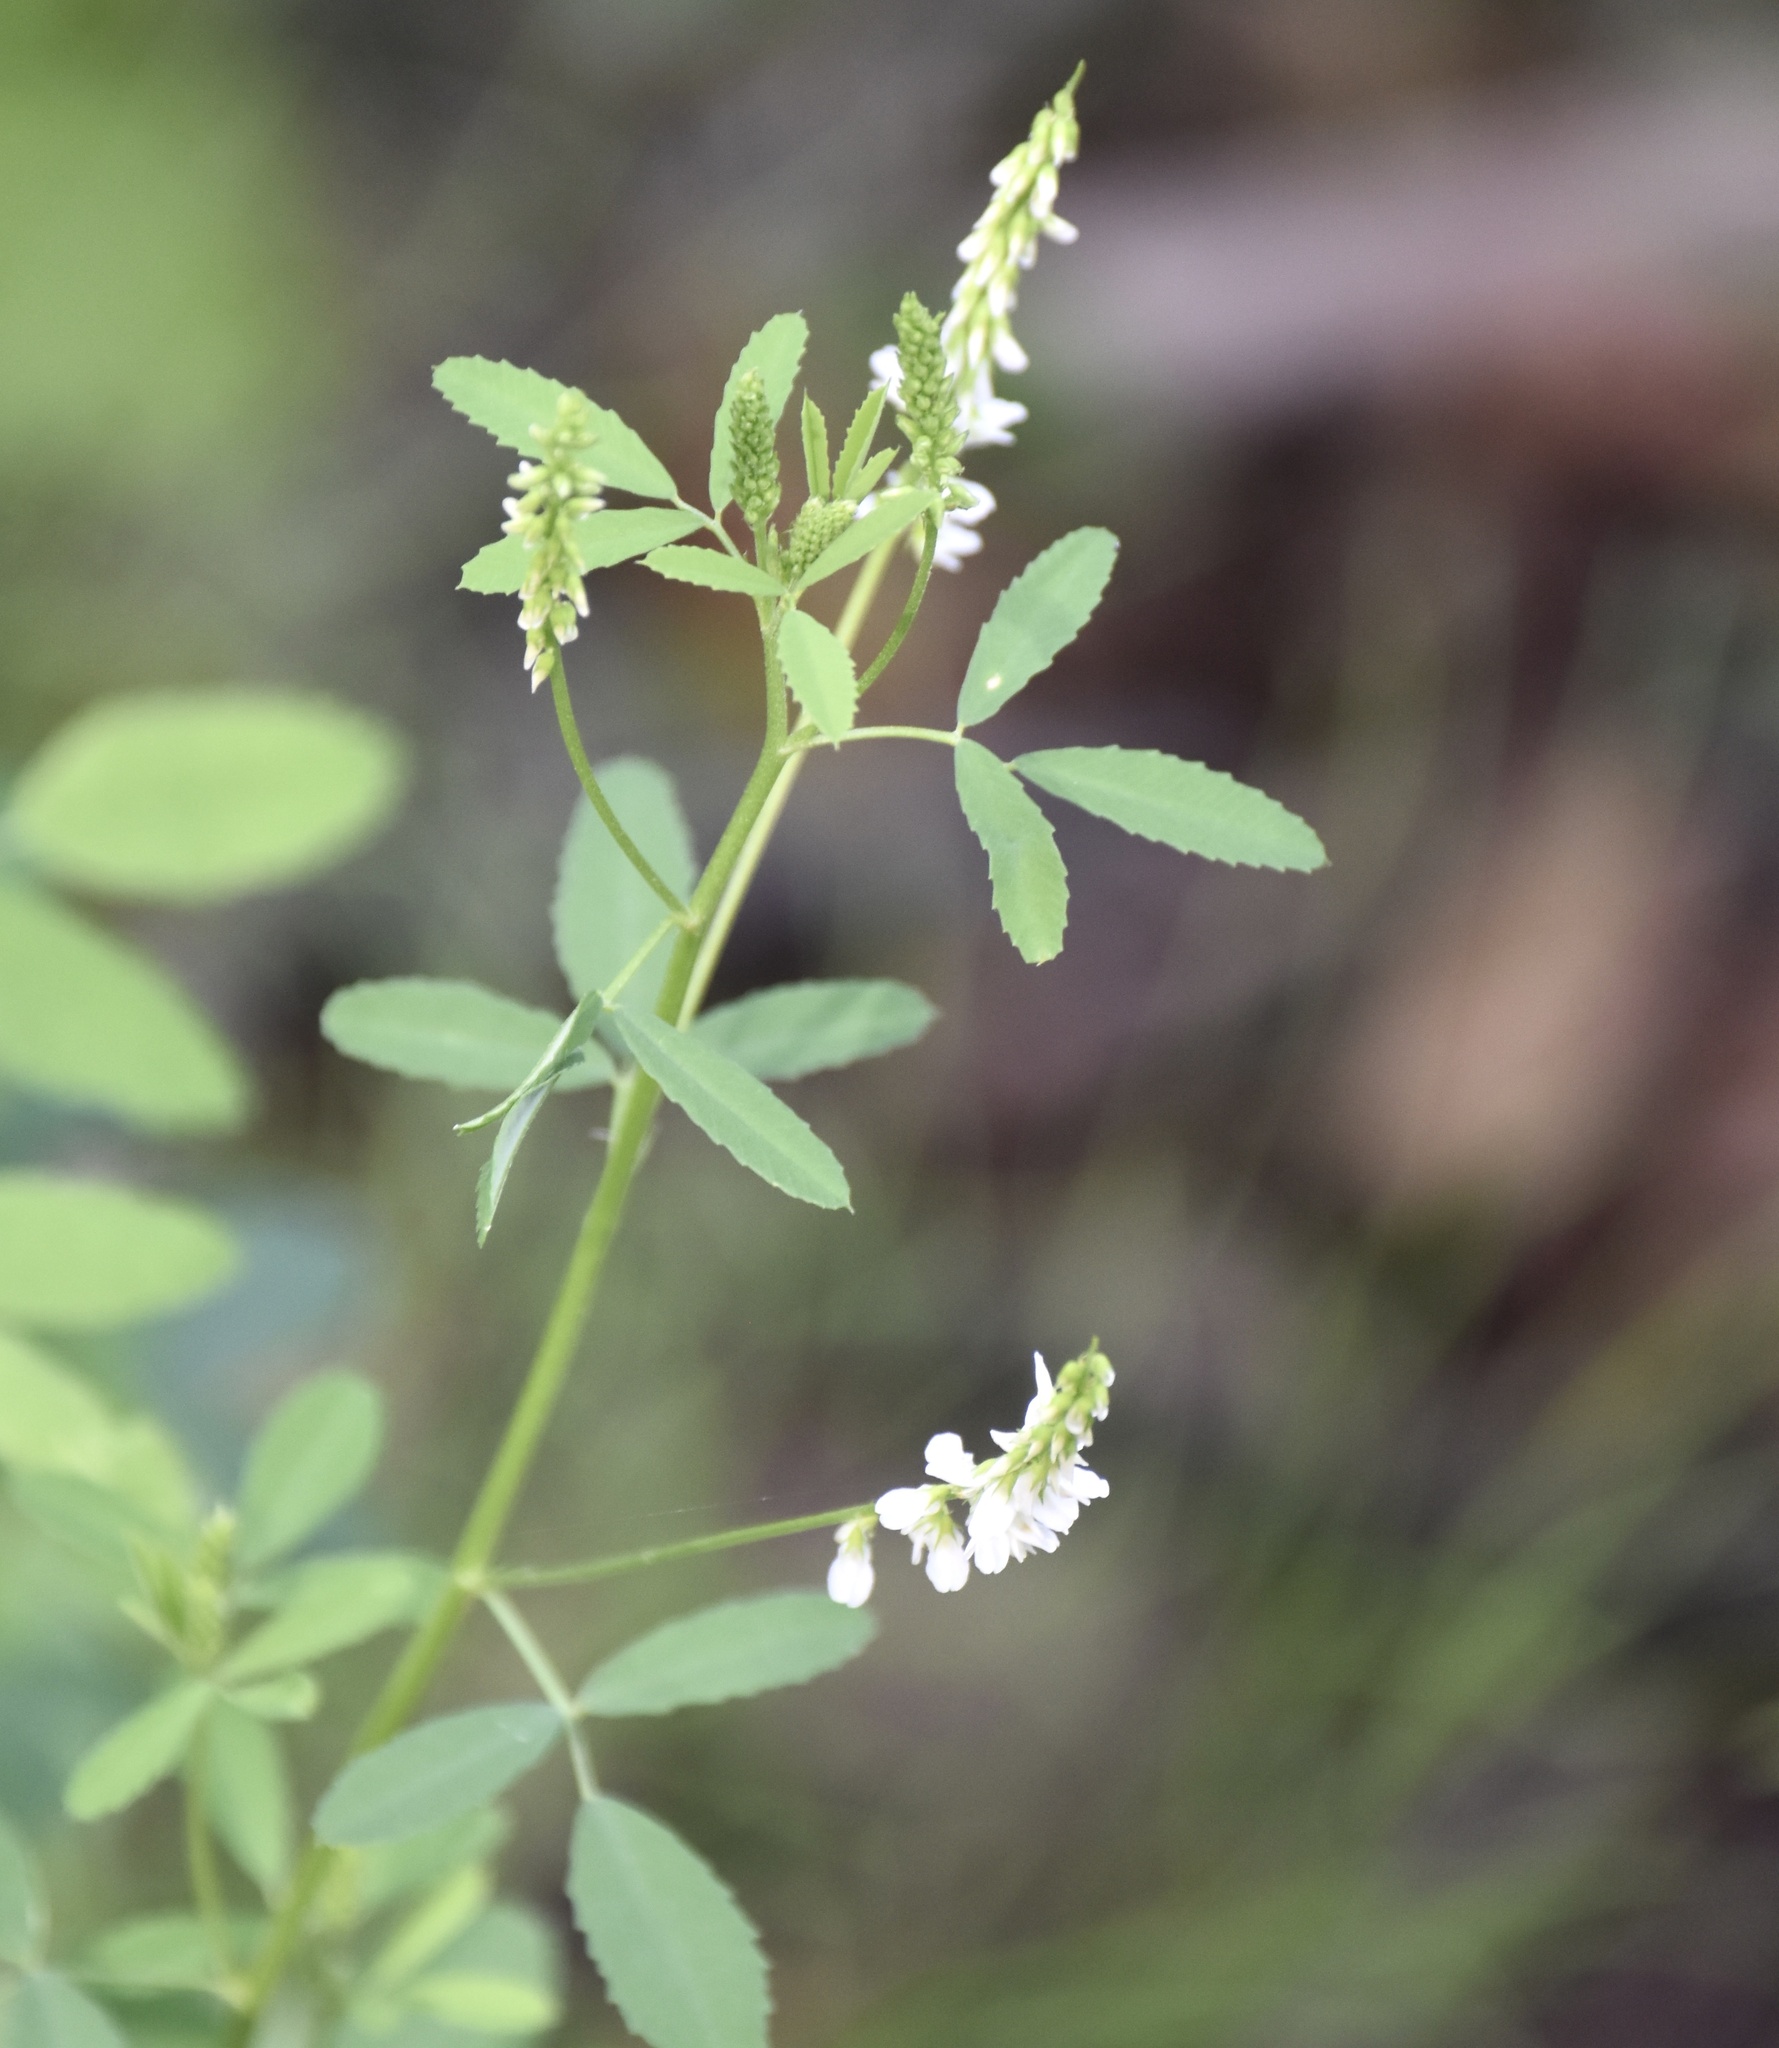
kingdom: Plantae
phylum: Tracheophyta
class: Magnoliopsida
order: Fabales
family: Fabaceae
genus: Melilotus
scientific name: Melilotus albus
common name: White melilot
